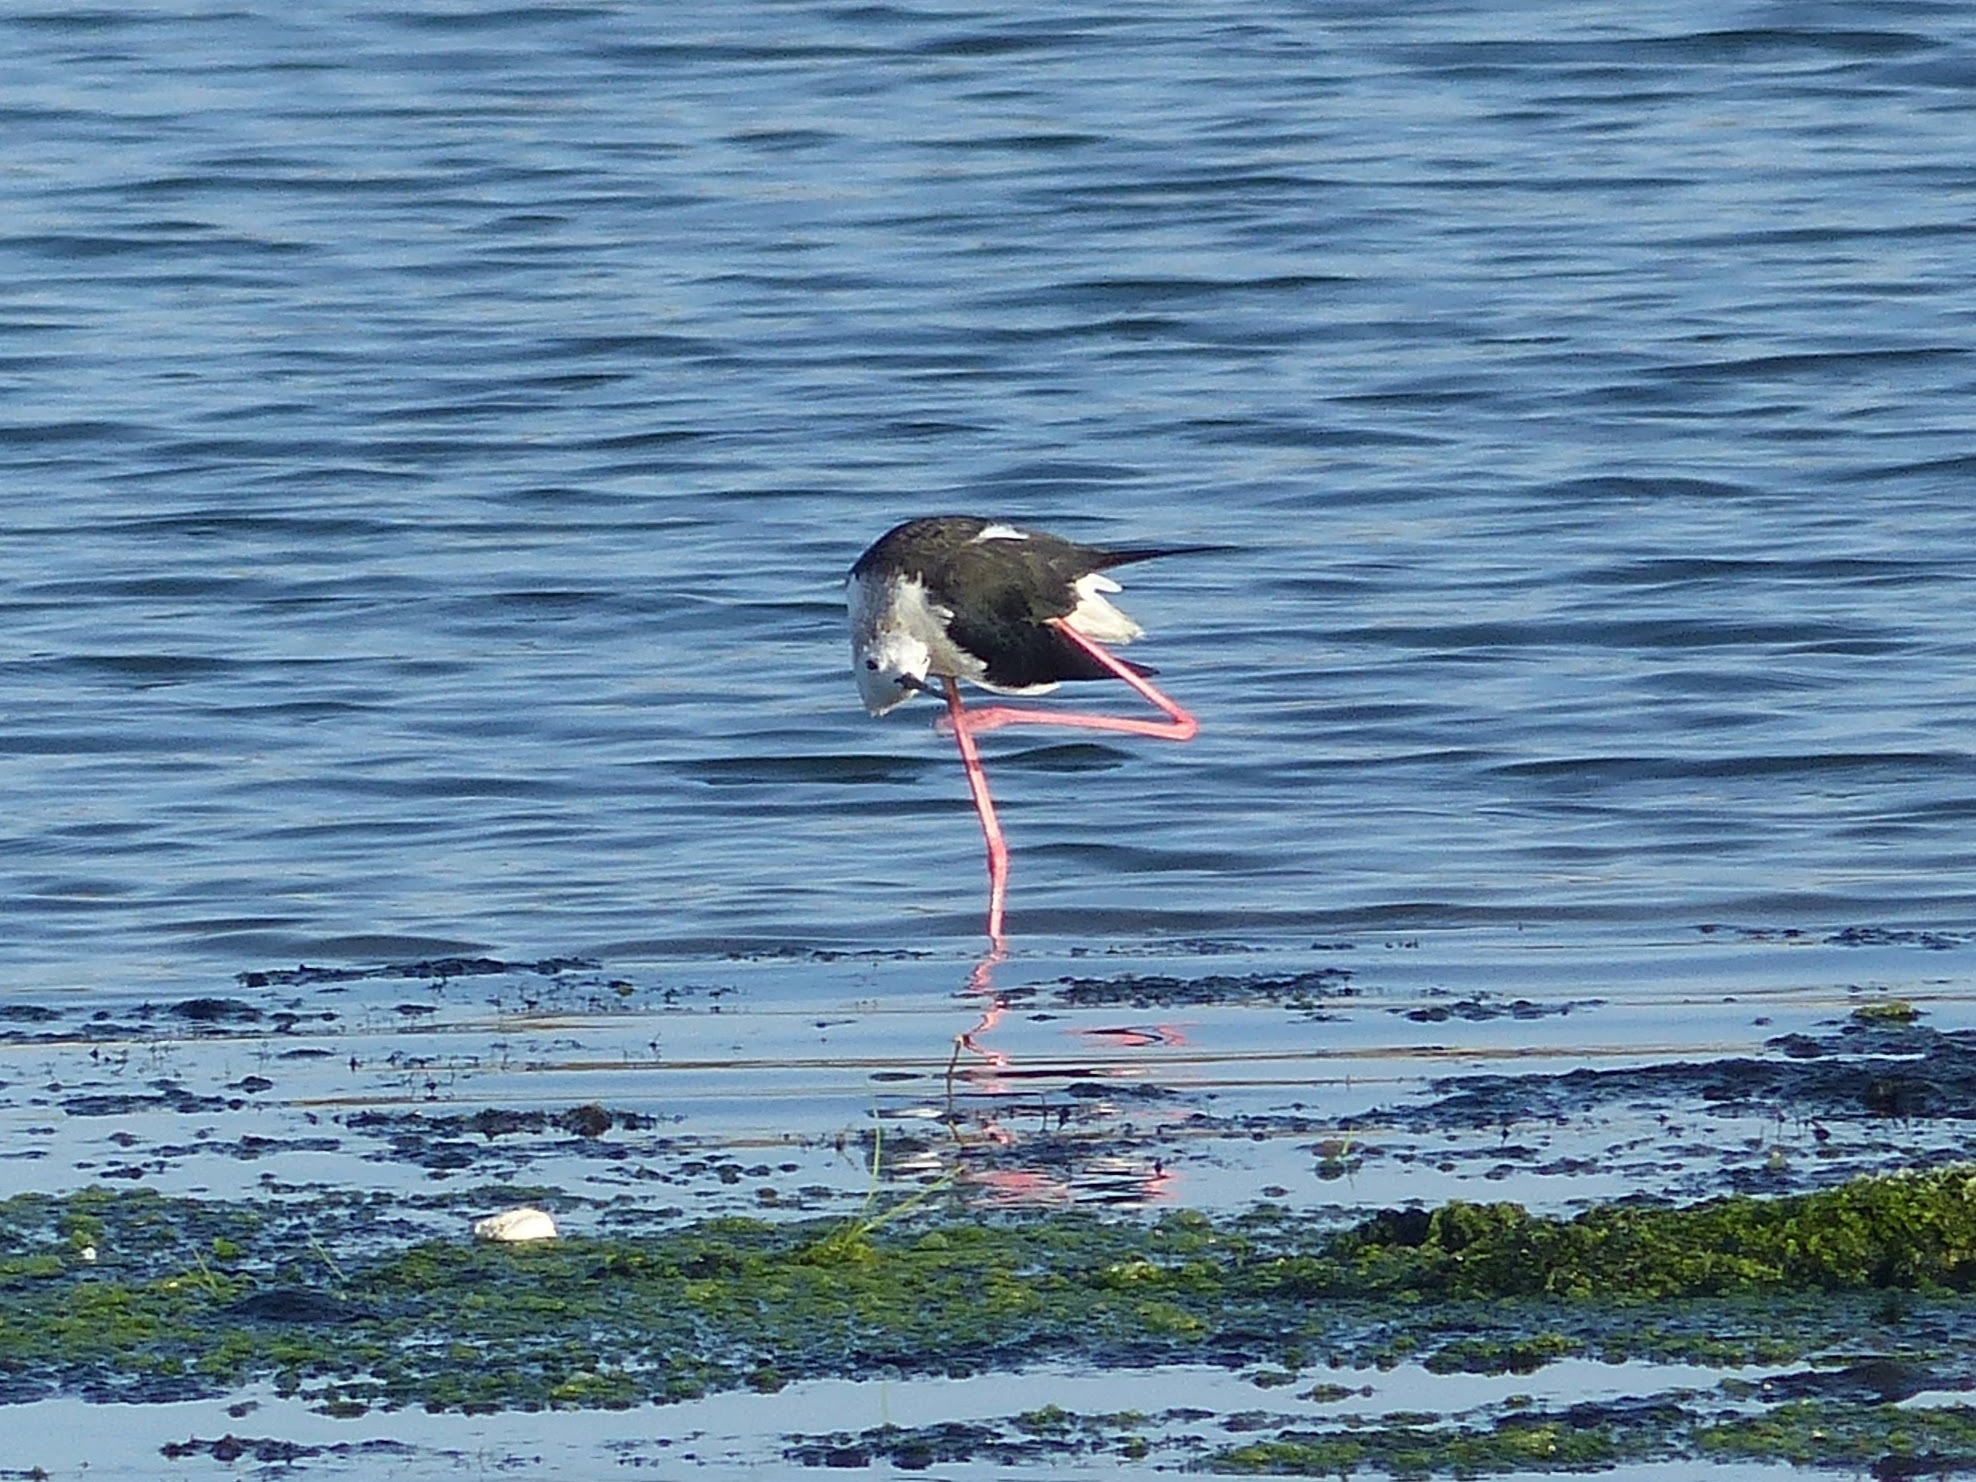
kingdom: Animalia
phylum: Chordata
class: Aves
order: Charadriiformes
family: Recurvirostridae
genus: Himantopus
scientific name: Himantopus himantopus
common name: Black-winged stilt
